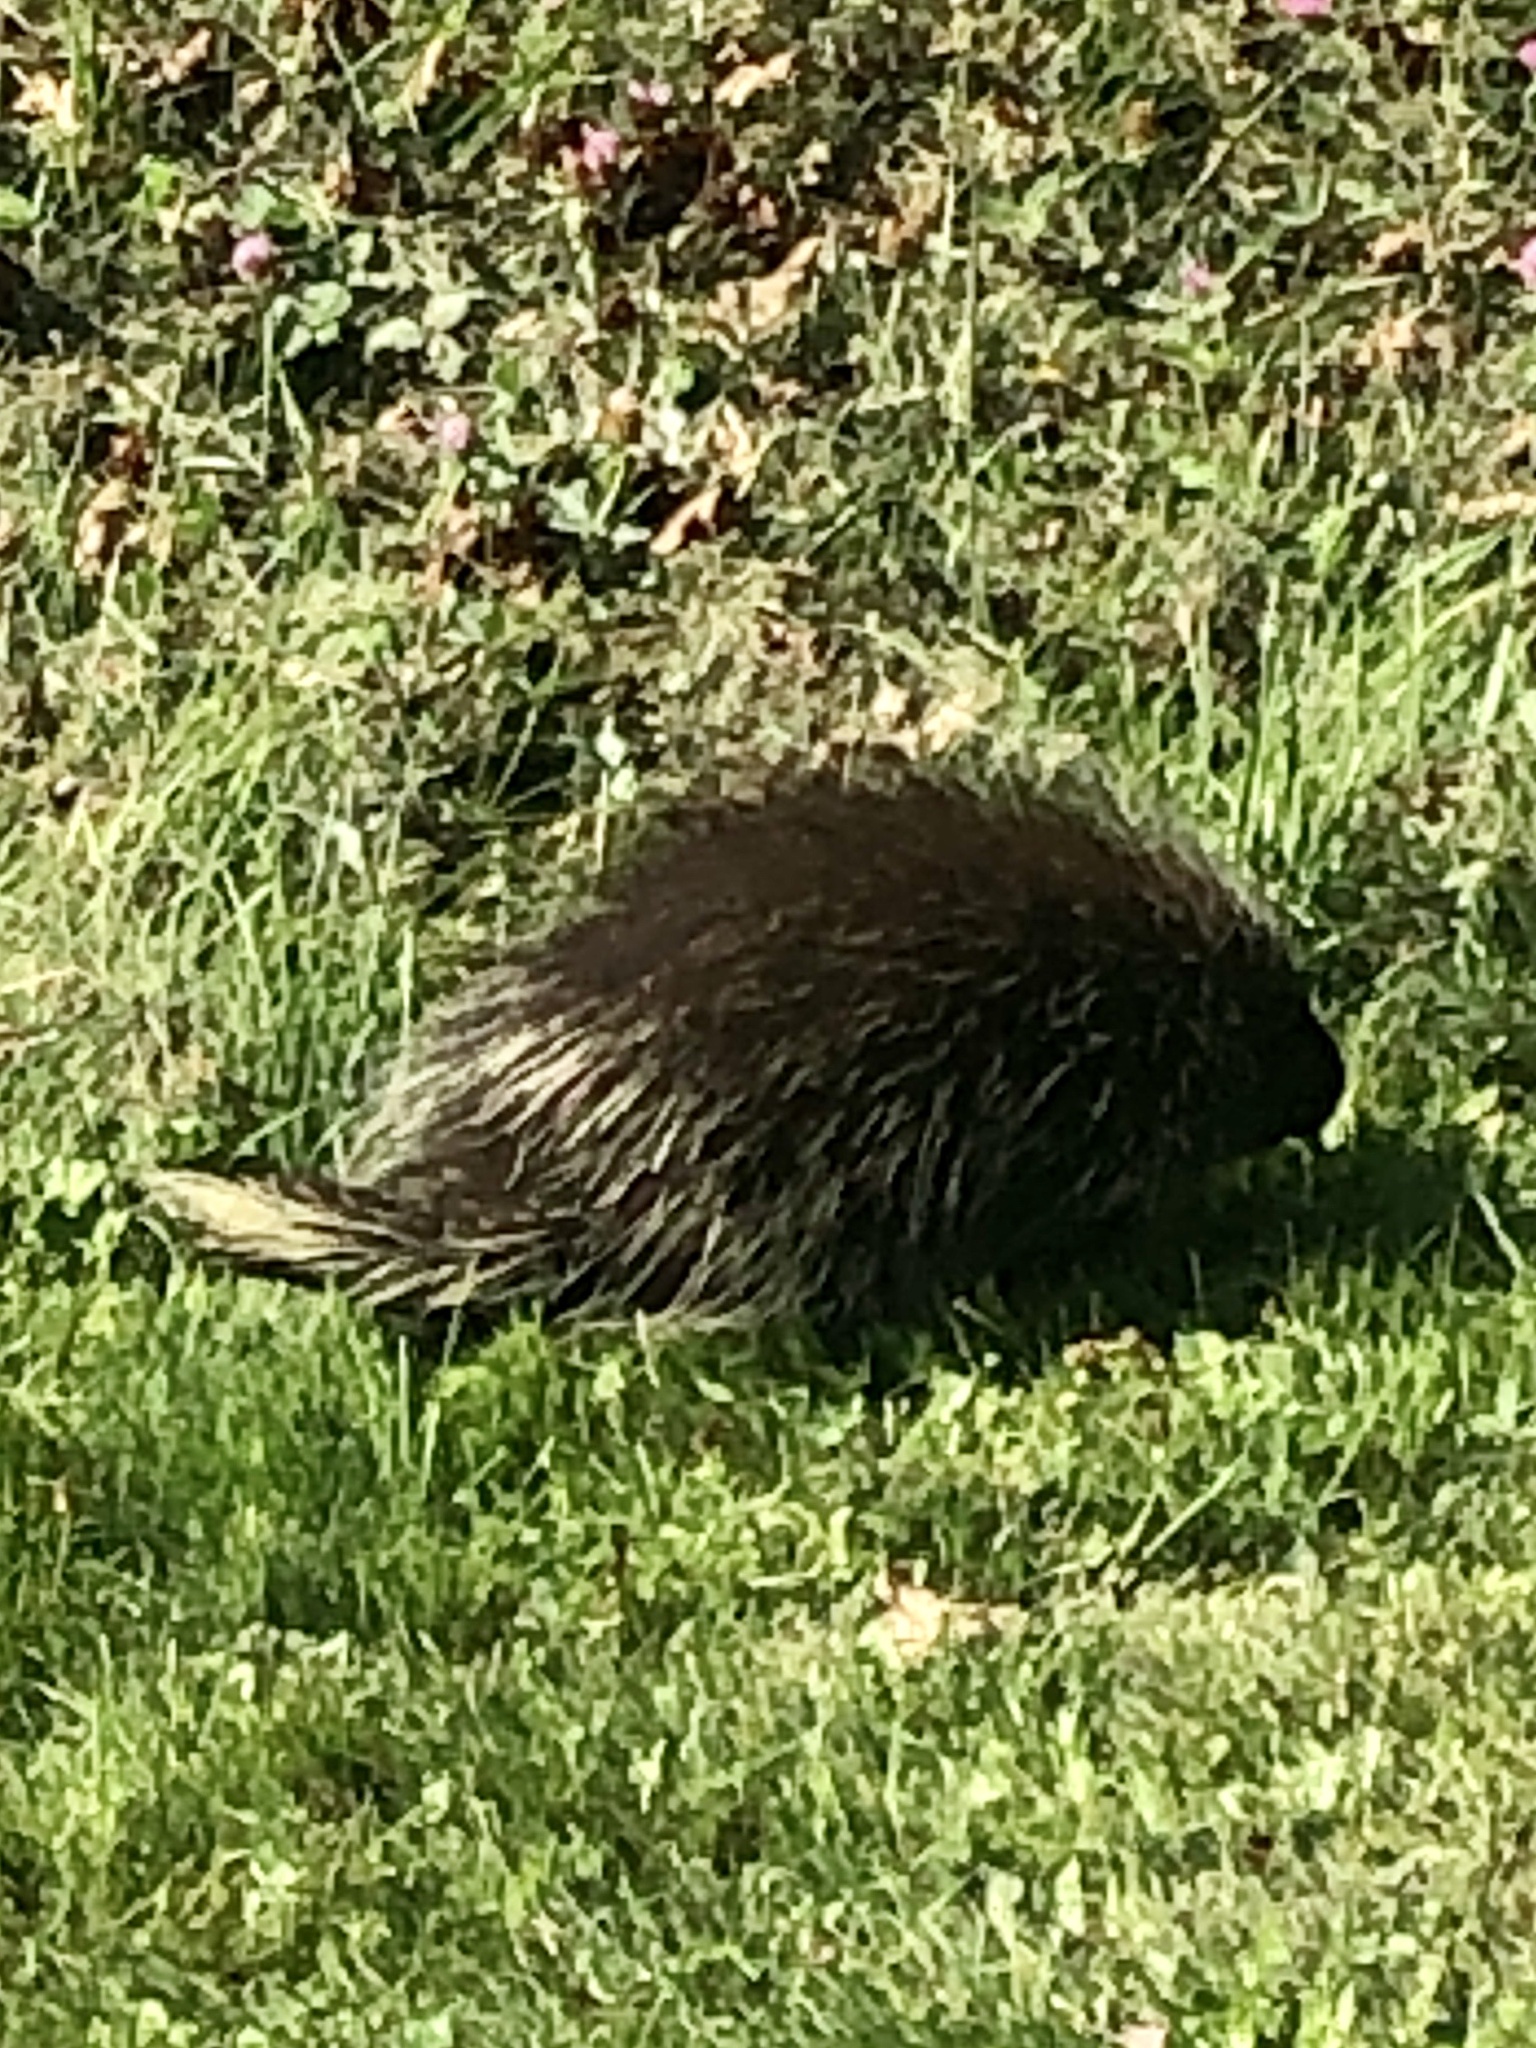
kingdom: Animalia
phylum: Chordata
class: Mammalia
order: Rodentia
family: Erethizontidae
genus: Erethizon
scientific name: Erethizon dorsatus
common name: North american porcupine
